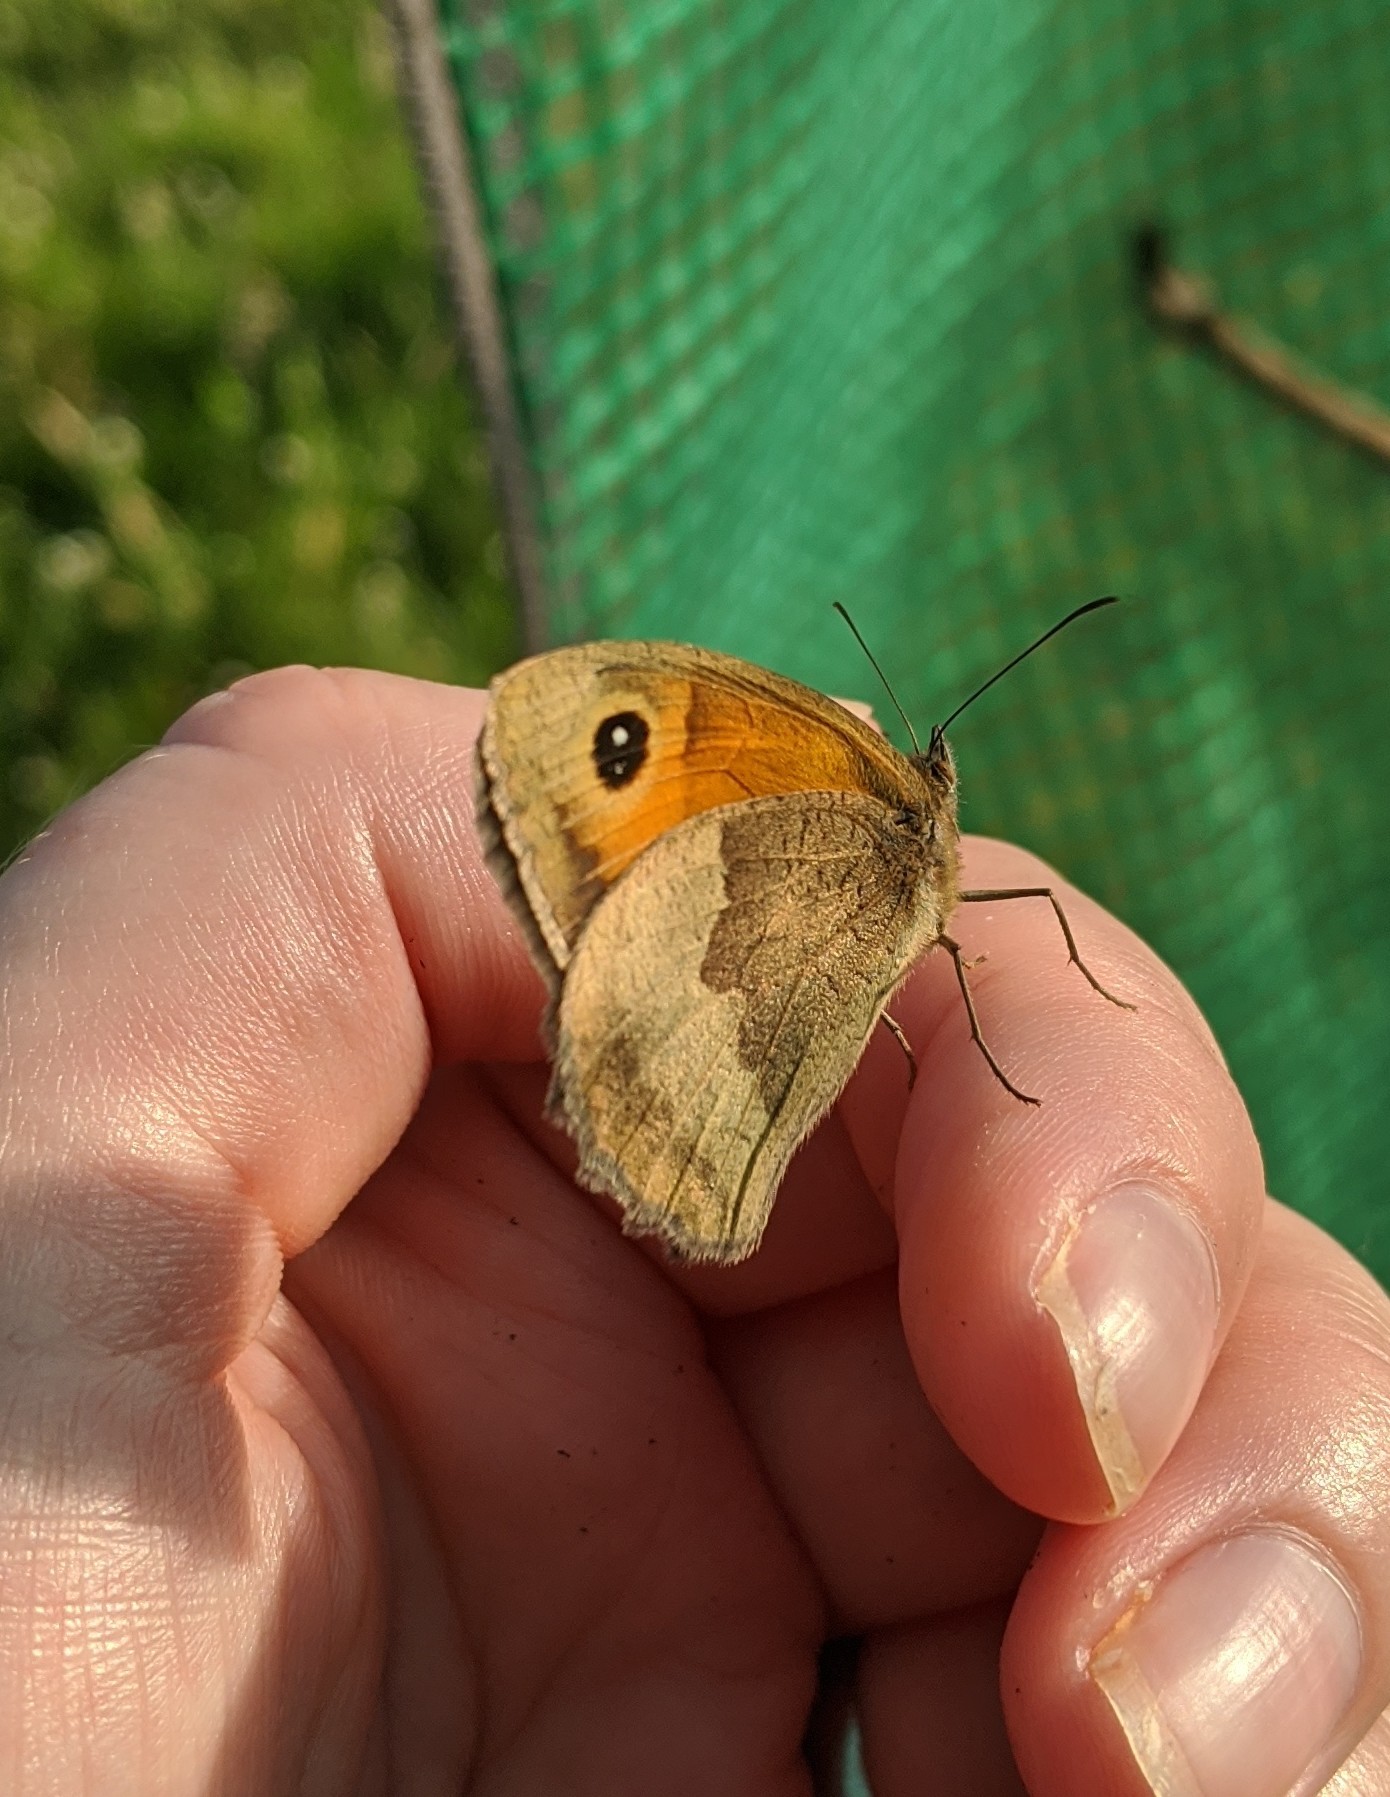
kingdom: Animalia
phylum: Arthropoda
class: Insecta
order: Lepidoptera
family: Nymphalidae
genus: Maniola
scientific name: Maniola jurtina
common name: Meadow brown
